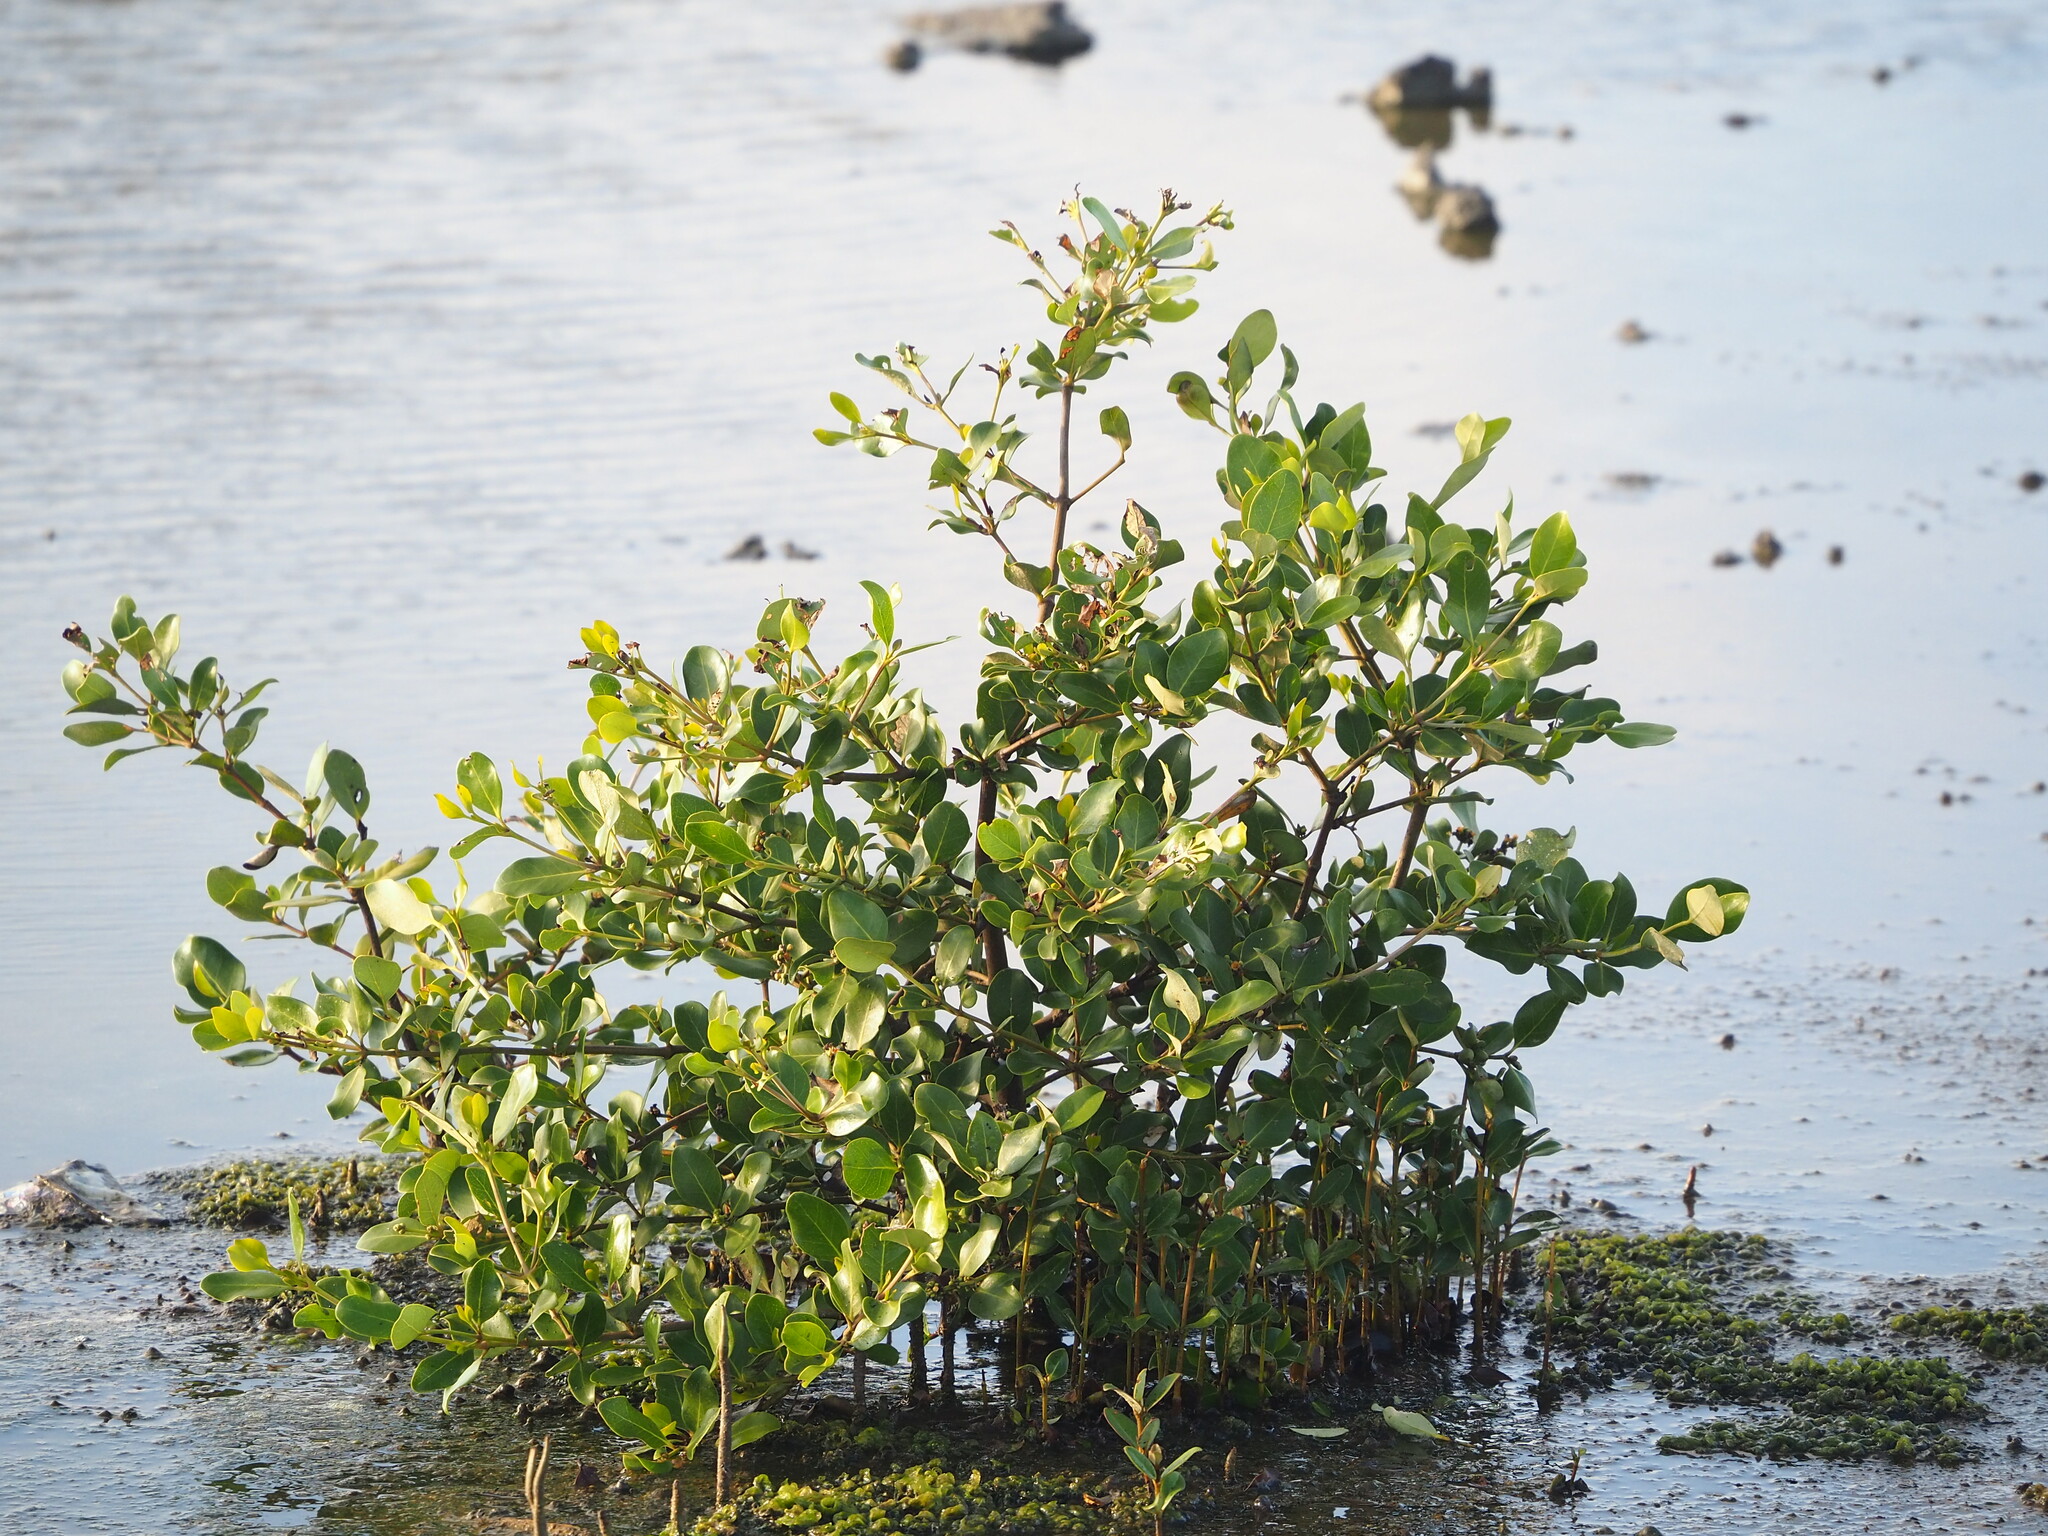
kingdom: Plantae
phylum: Tracheophyta
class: Magnoliopsida
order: Lamiales
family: Acanthaceae
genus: Avicennia
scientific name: Avicennia marina
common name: Gray mangrove
